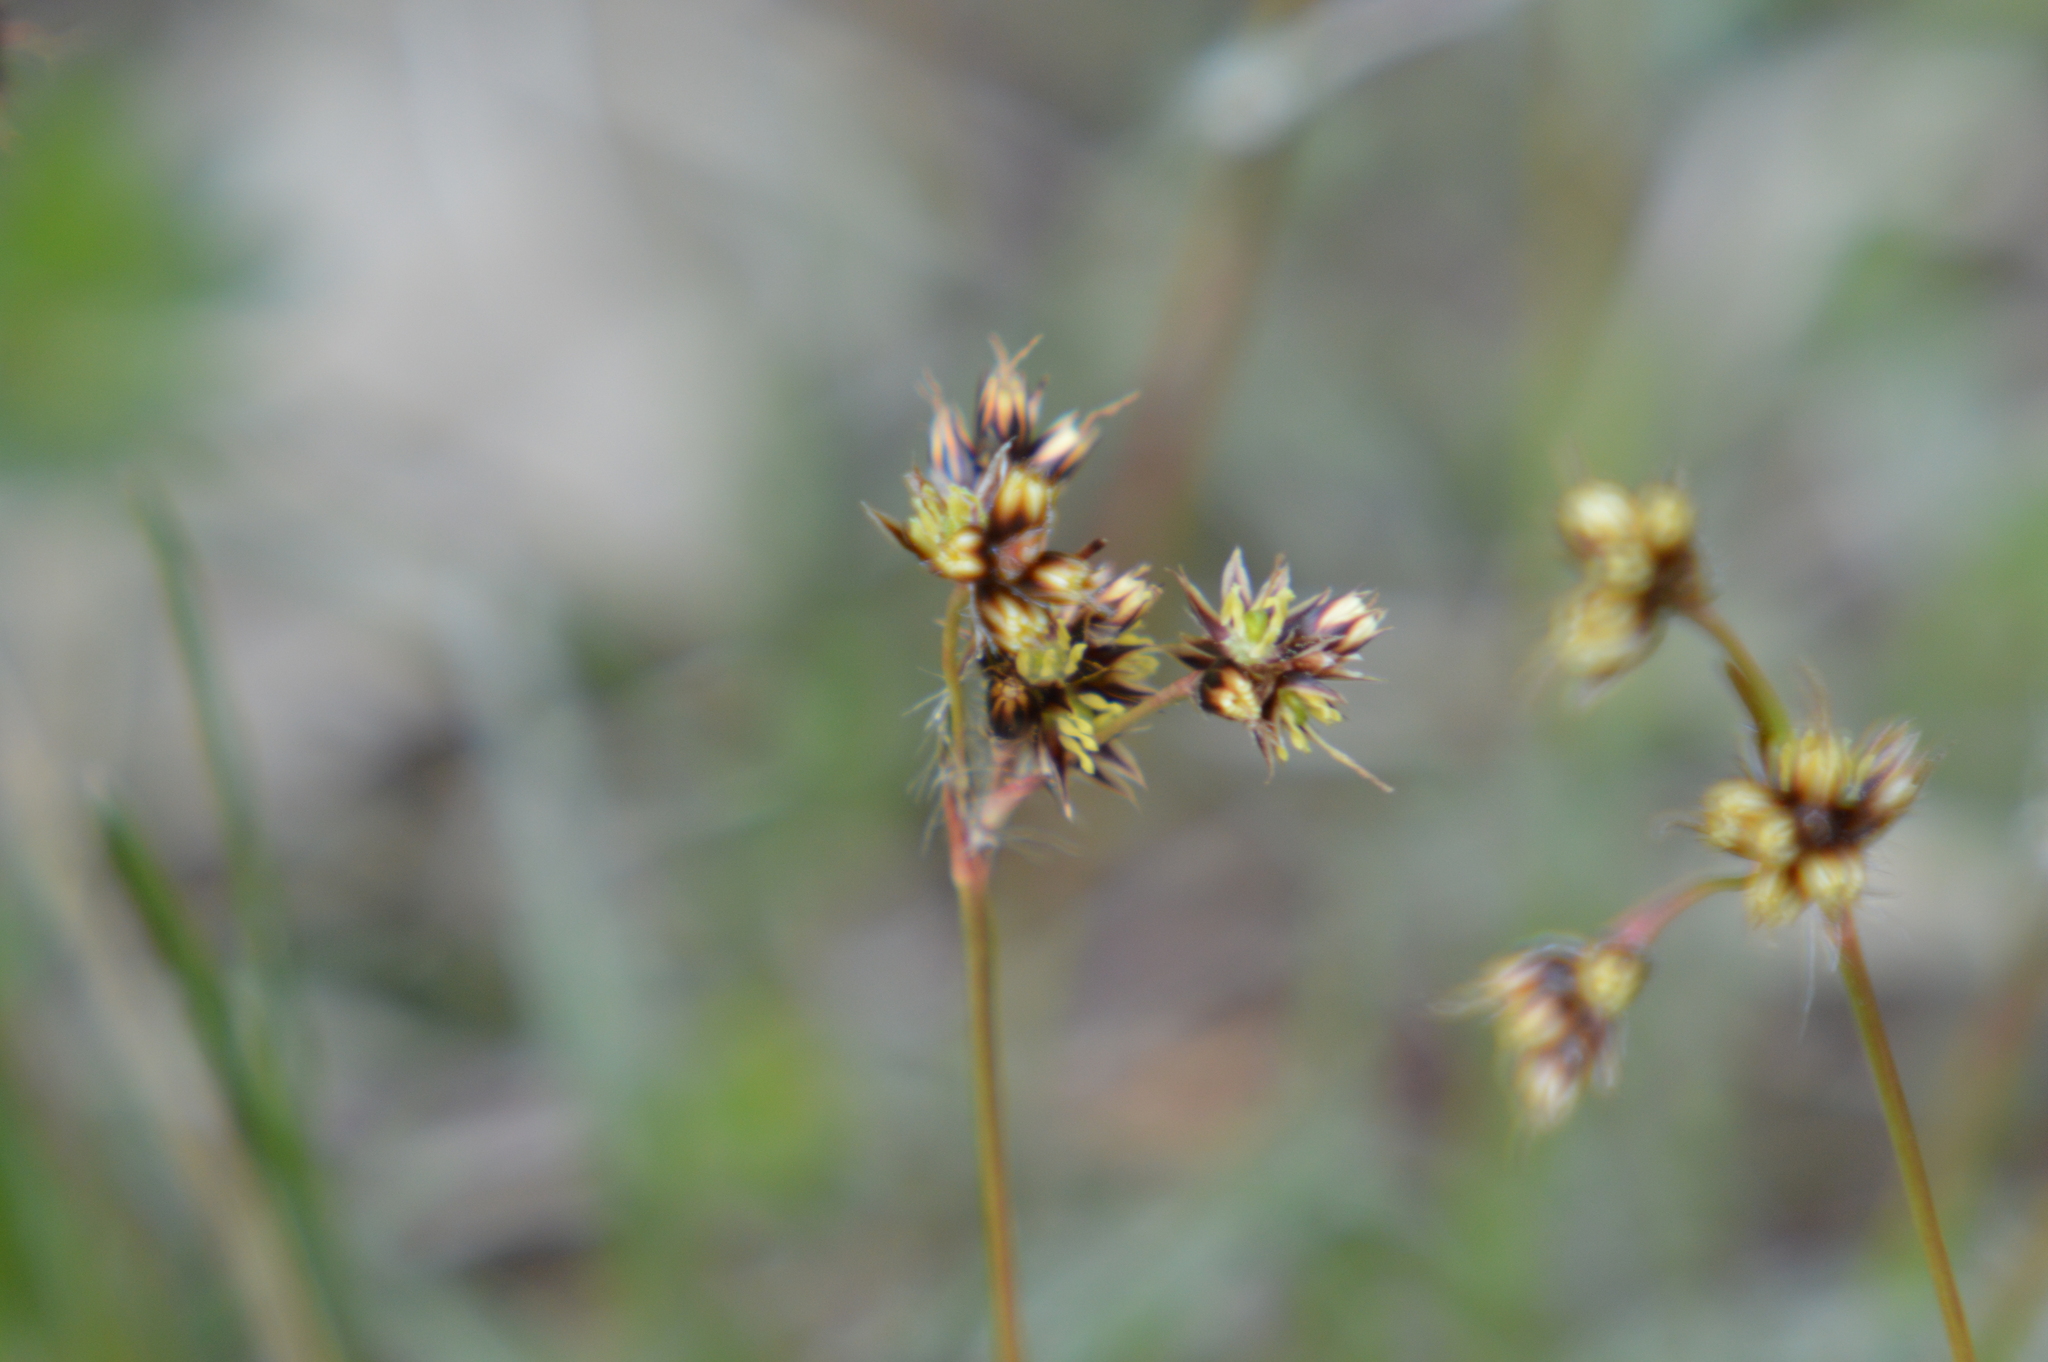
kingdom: Plantae
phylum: Tracheophyta
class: Liliopsida
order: Poales
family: Juncaceae
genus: Luzula
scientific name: Luzula campestris
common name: Field wood-rush
